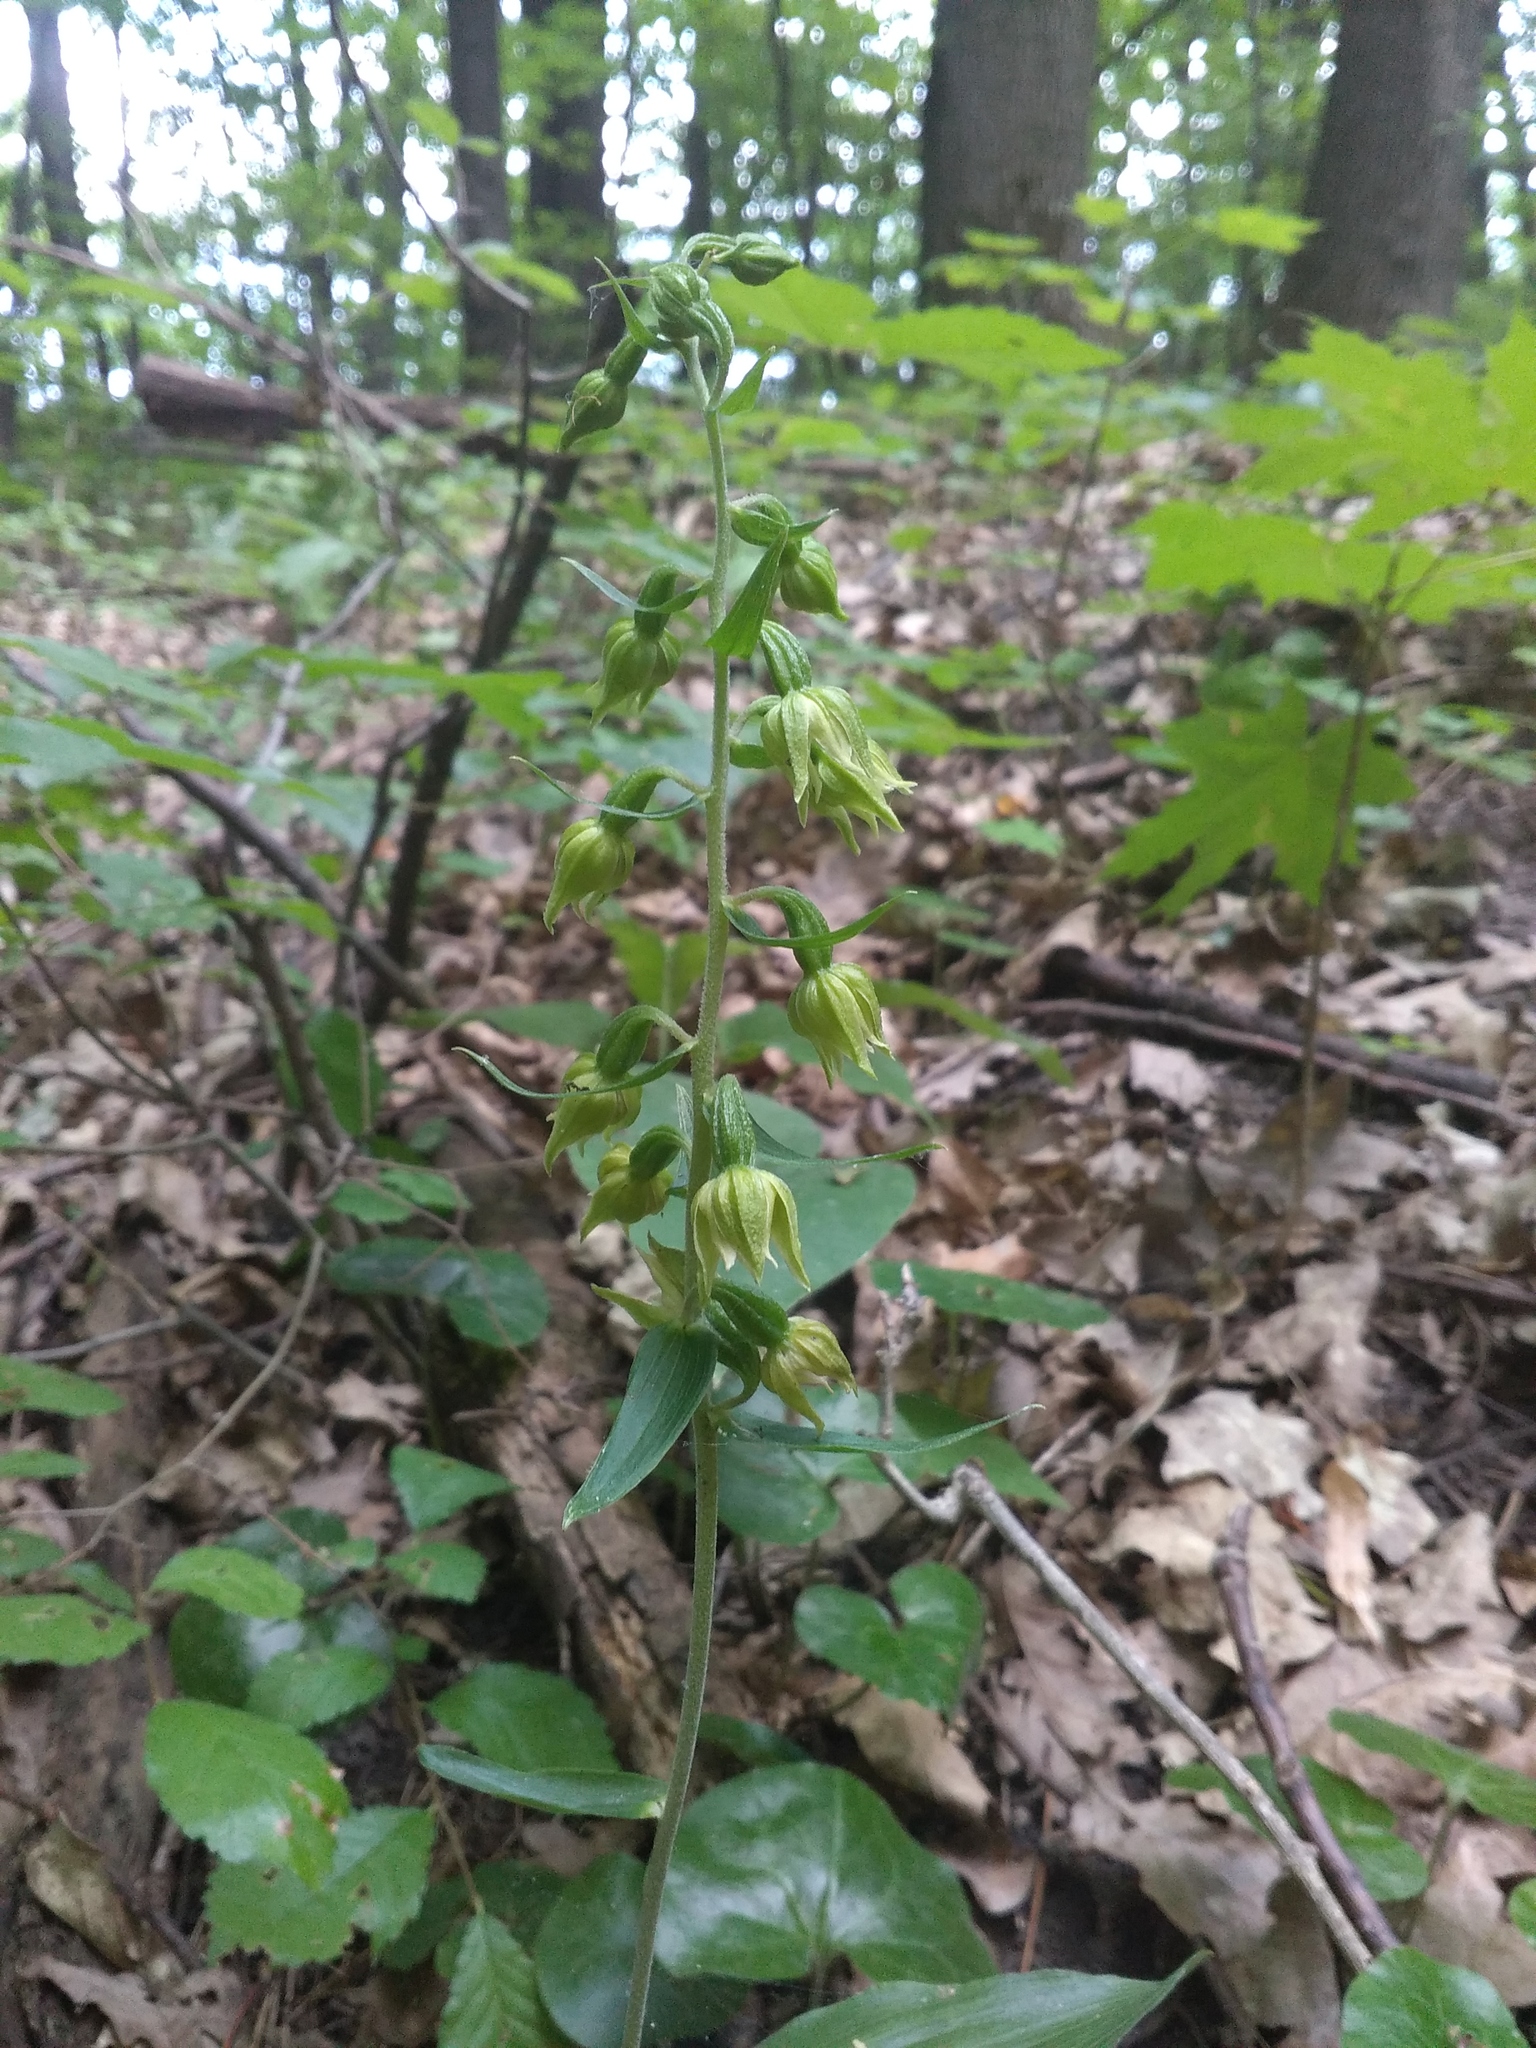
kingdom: Plantae
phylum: Tracheophyta
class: Liliopsida
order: Asparagales
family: Orchidaceae
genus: Epipactis
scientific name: Epipactis helleborine
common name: Broad-leaved helleborine
